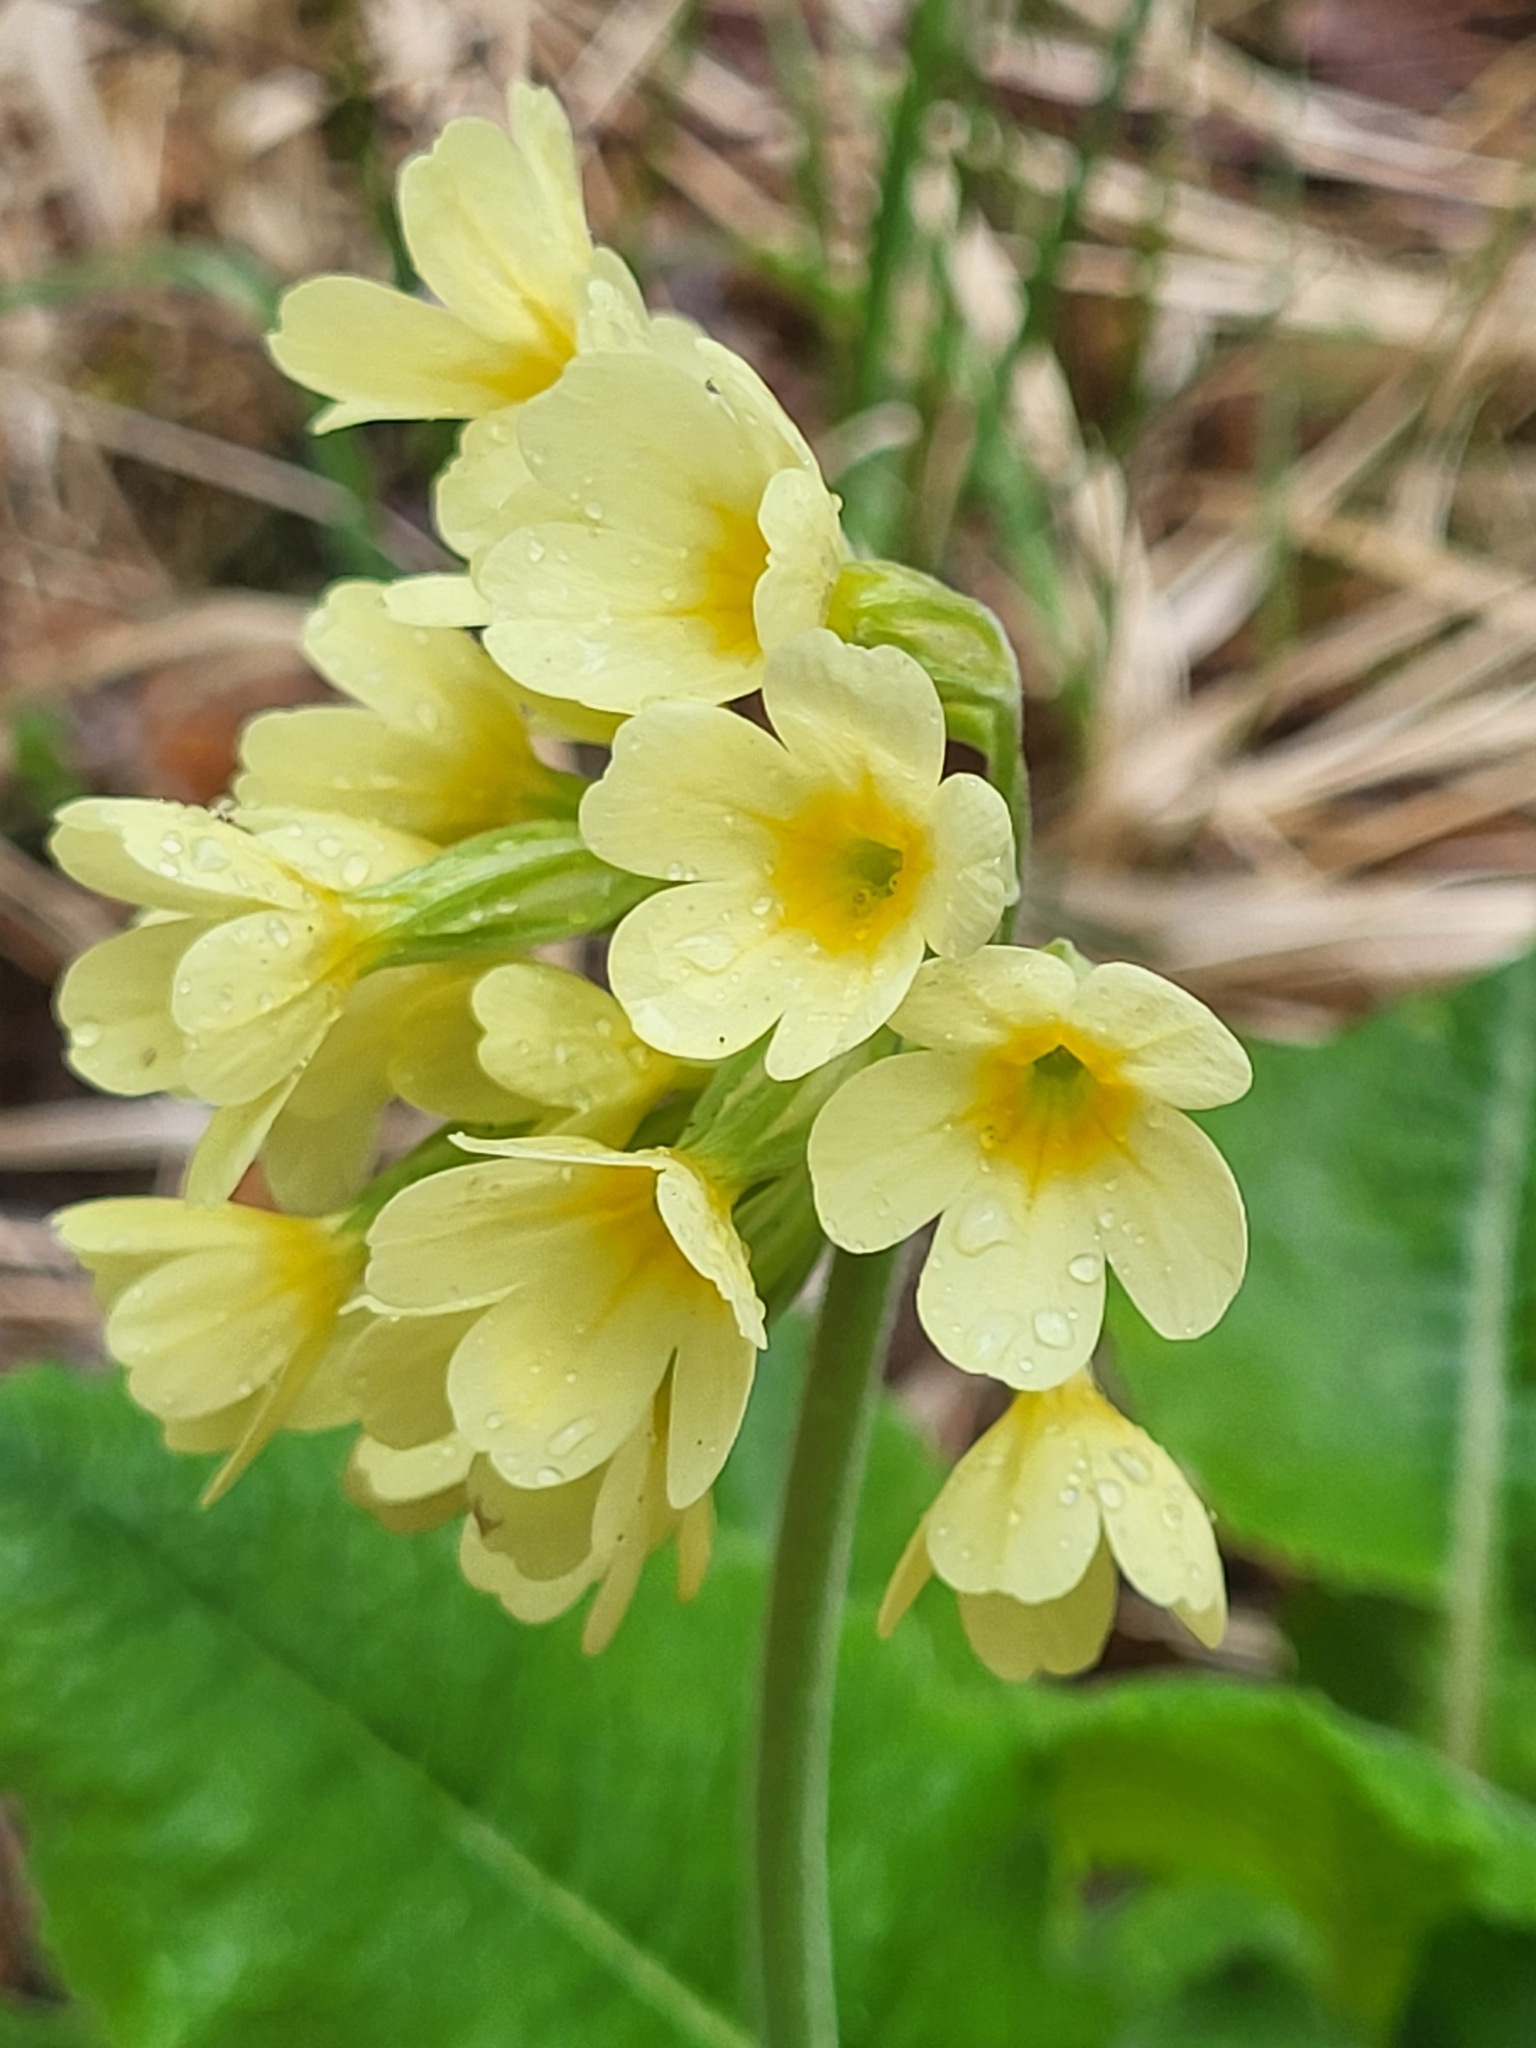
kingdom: Plantae
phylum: Tracheophyta
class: Magnoliopsida
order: Ericales
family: Primulaceae
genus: Primula
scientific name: Primula elatior
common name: Oxlip
